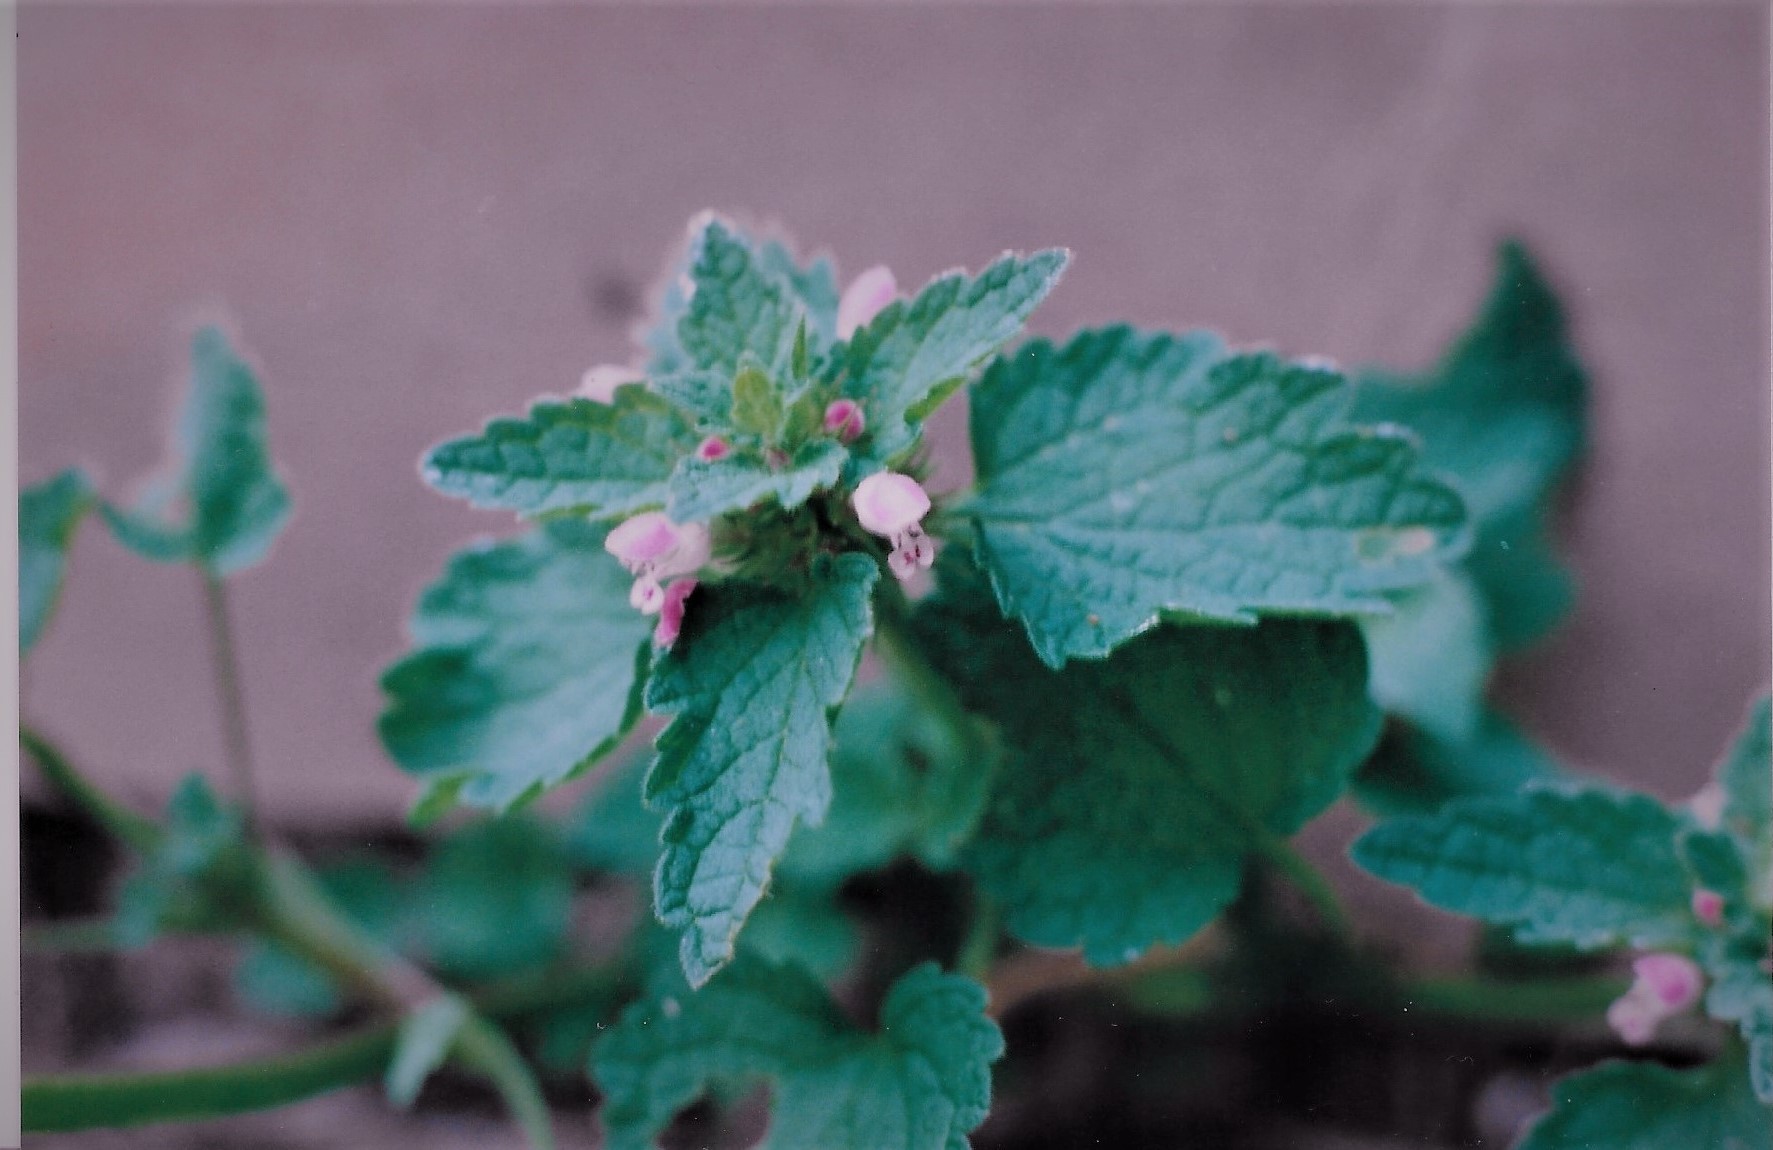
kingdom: Plantae
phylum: Tracheophyta
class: Magnoliopsida
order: Lamiales
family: Lamiaceae
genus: Lamium
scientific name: Lamium purpureum
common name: Red dead-nettle
